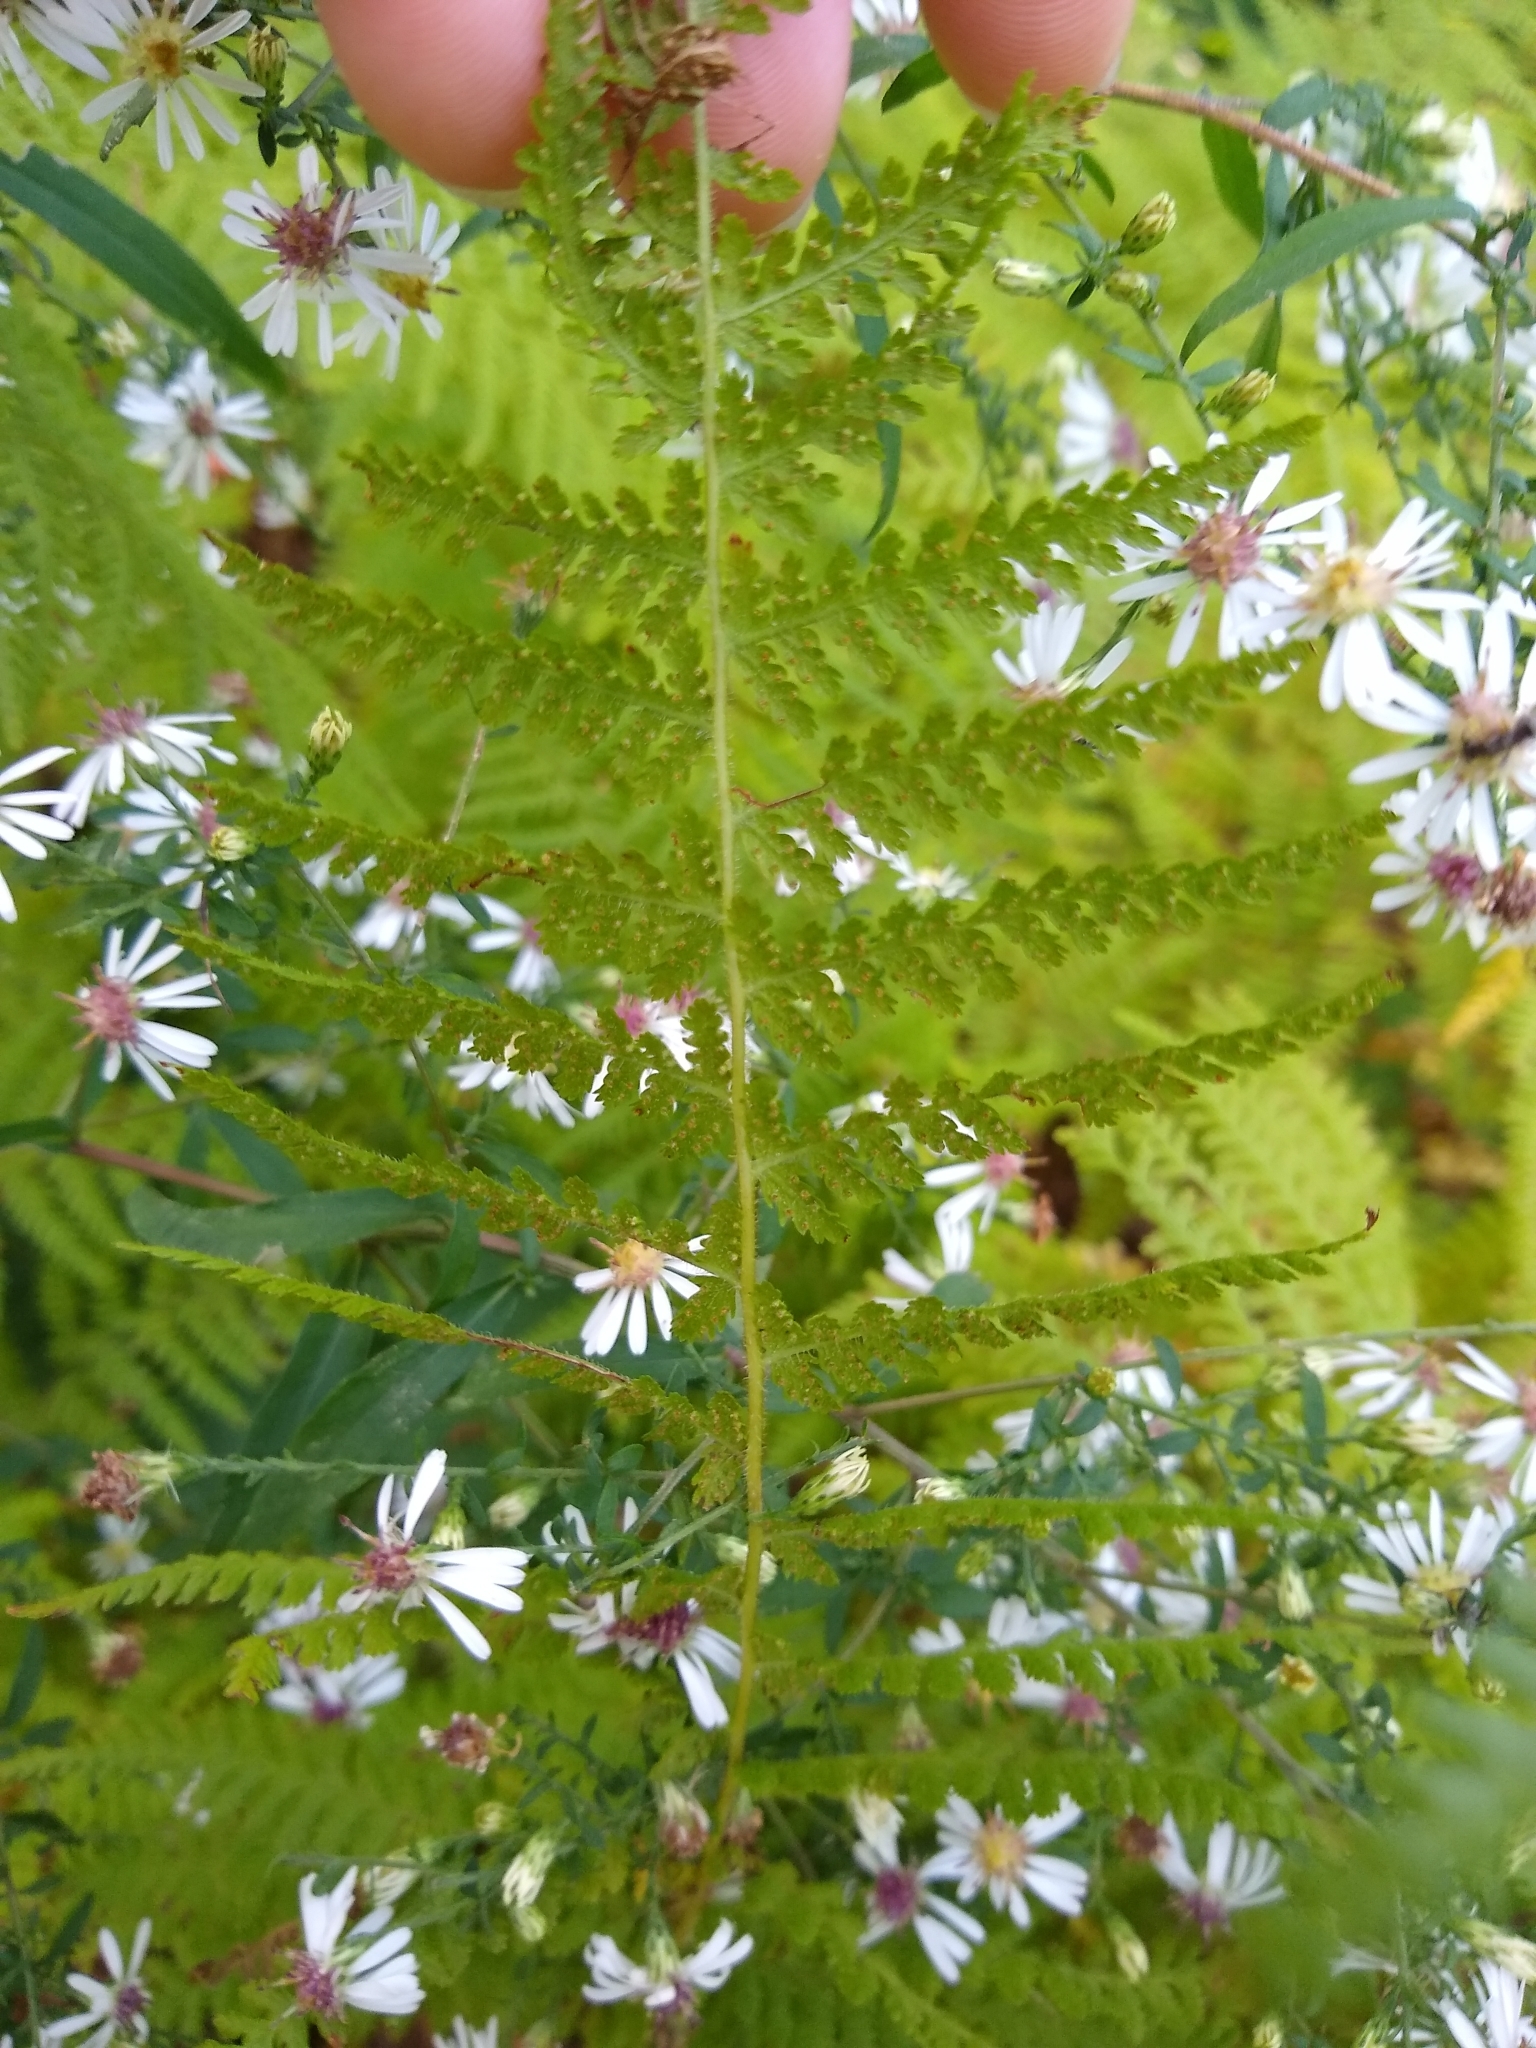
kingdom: Plantae
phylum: Tracheophyta
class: Polypodiopsida
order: Polypodiales
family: Dennstaedtiaceae
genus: Sitobolium
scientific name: Sitobolium punctilobum
